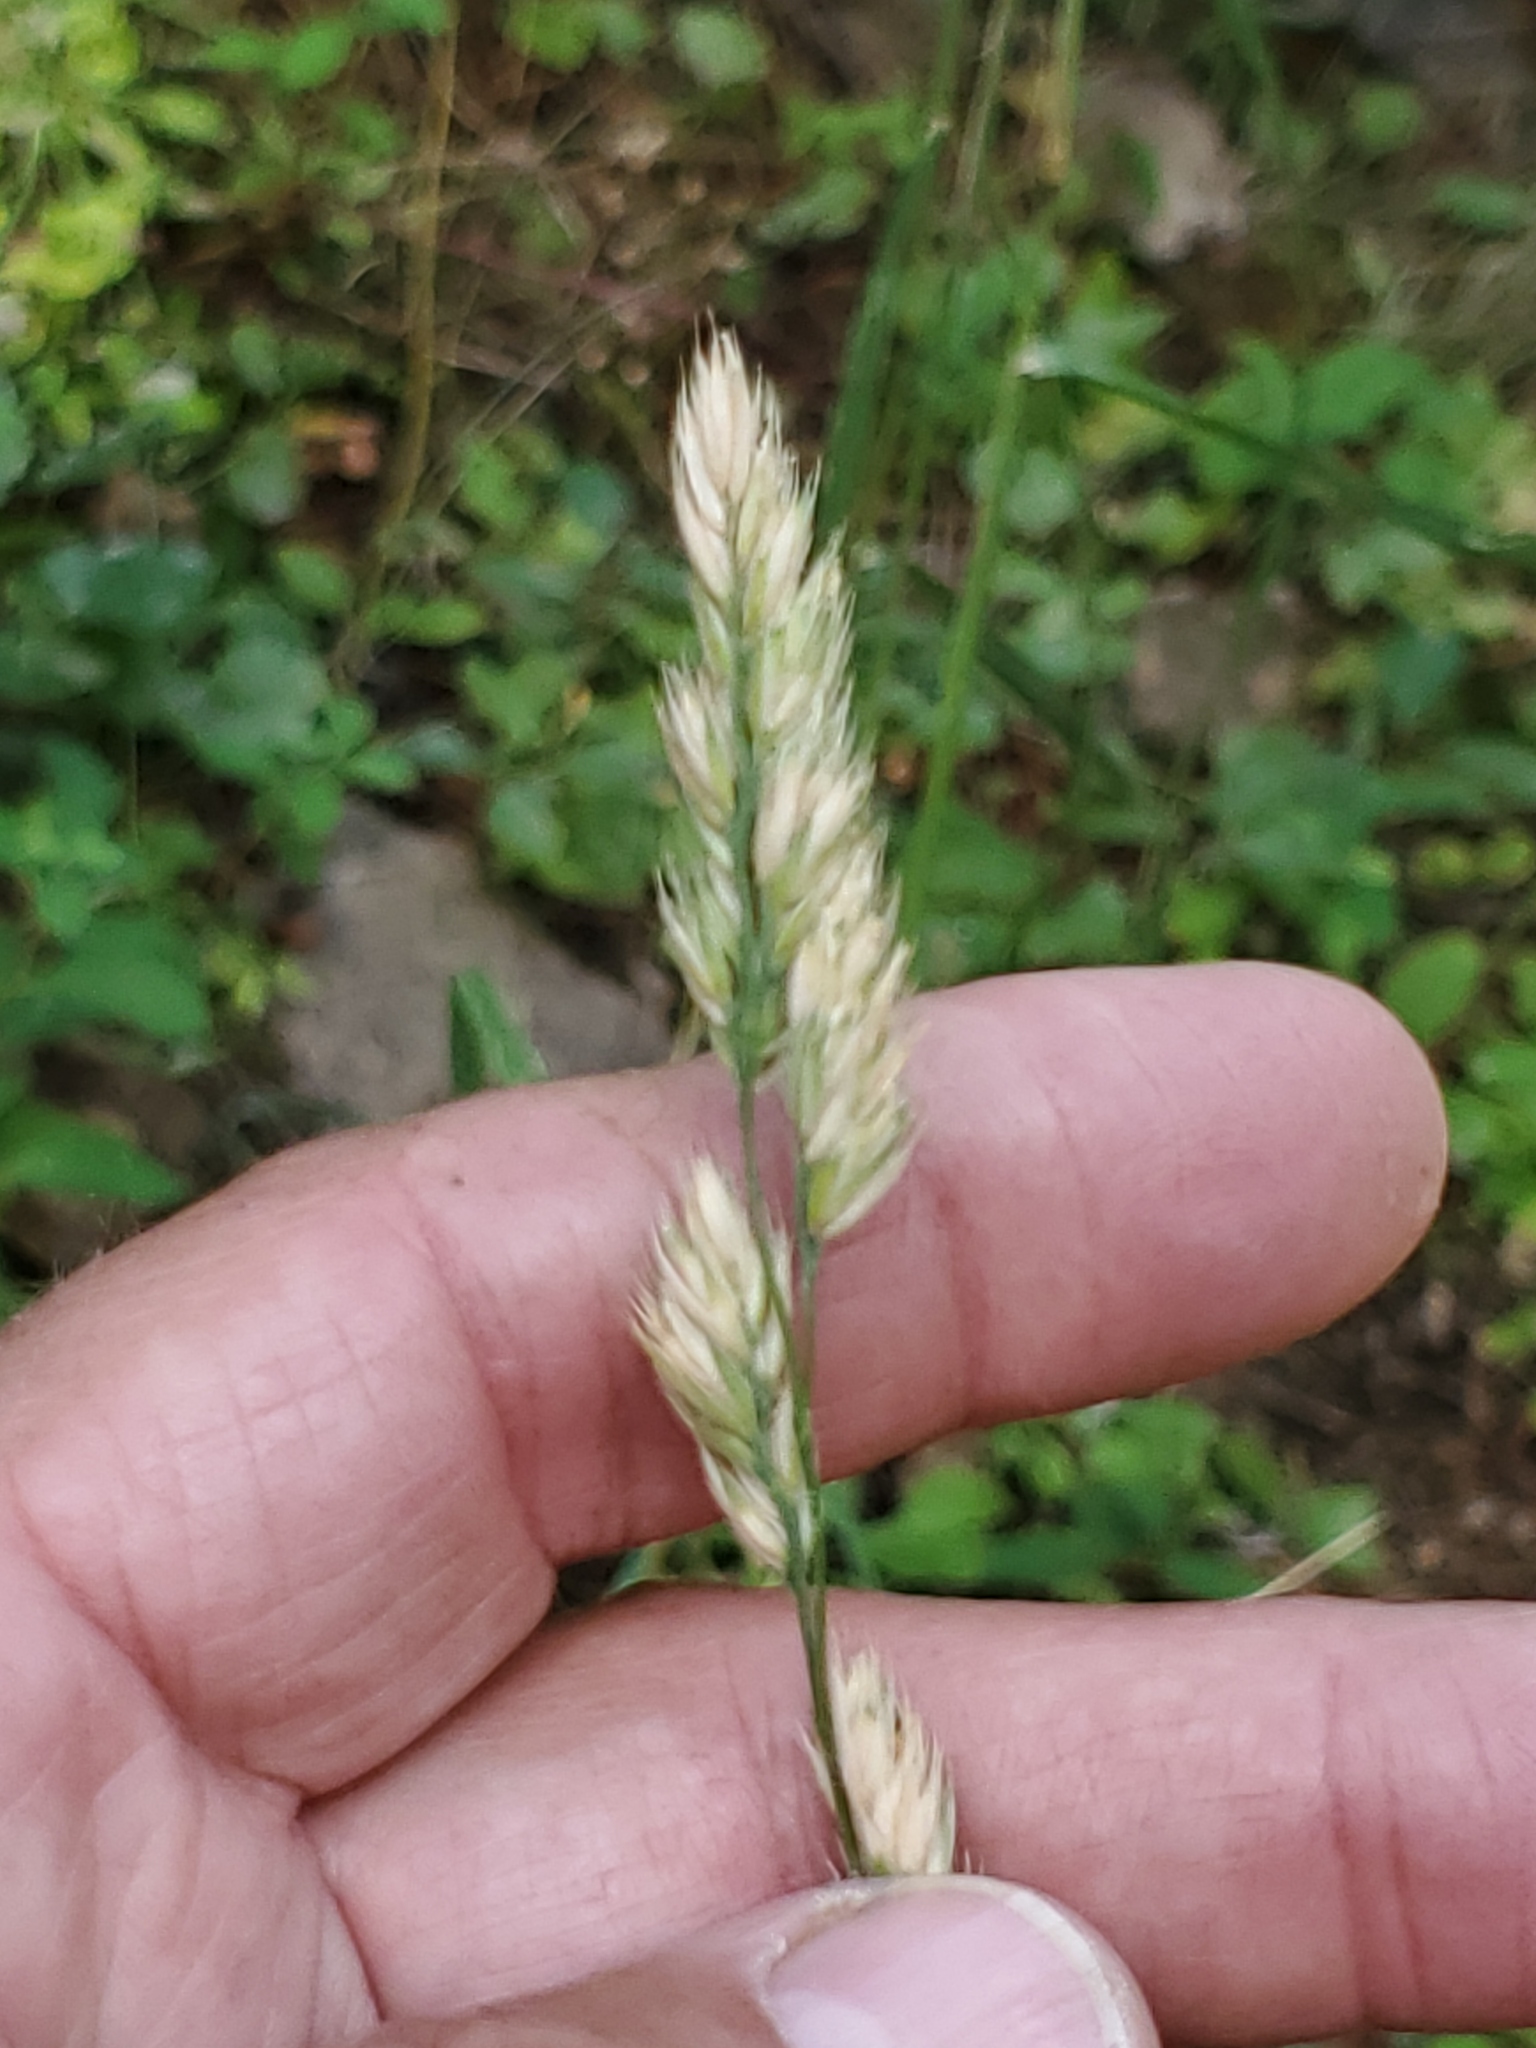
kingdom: Plantae
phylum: Tracheophyta
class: Liliopsida
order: Poales
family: Poaceae
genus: Dactylis
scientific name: Dactylis glomerata
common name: Orchardgrass
